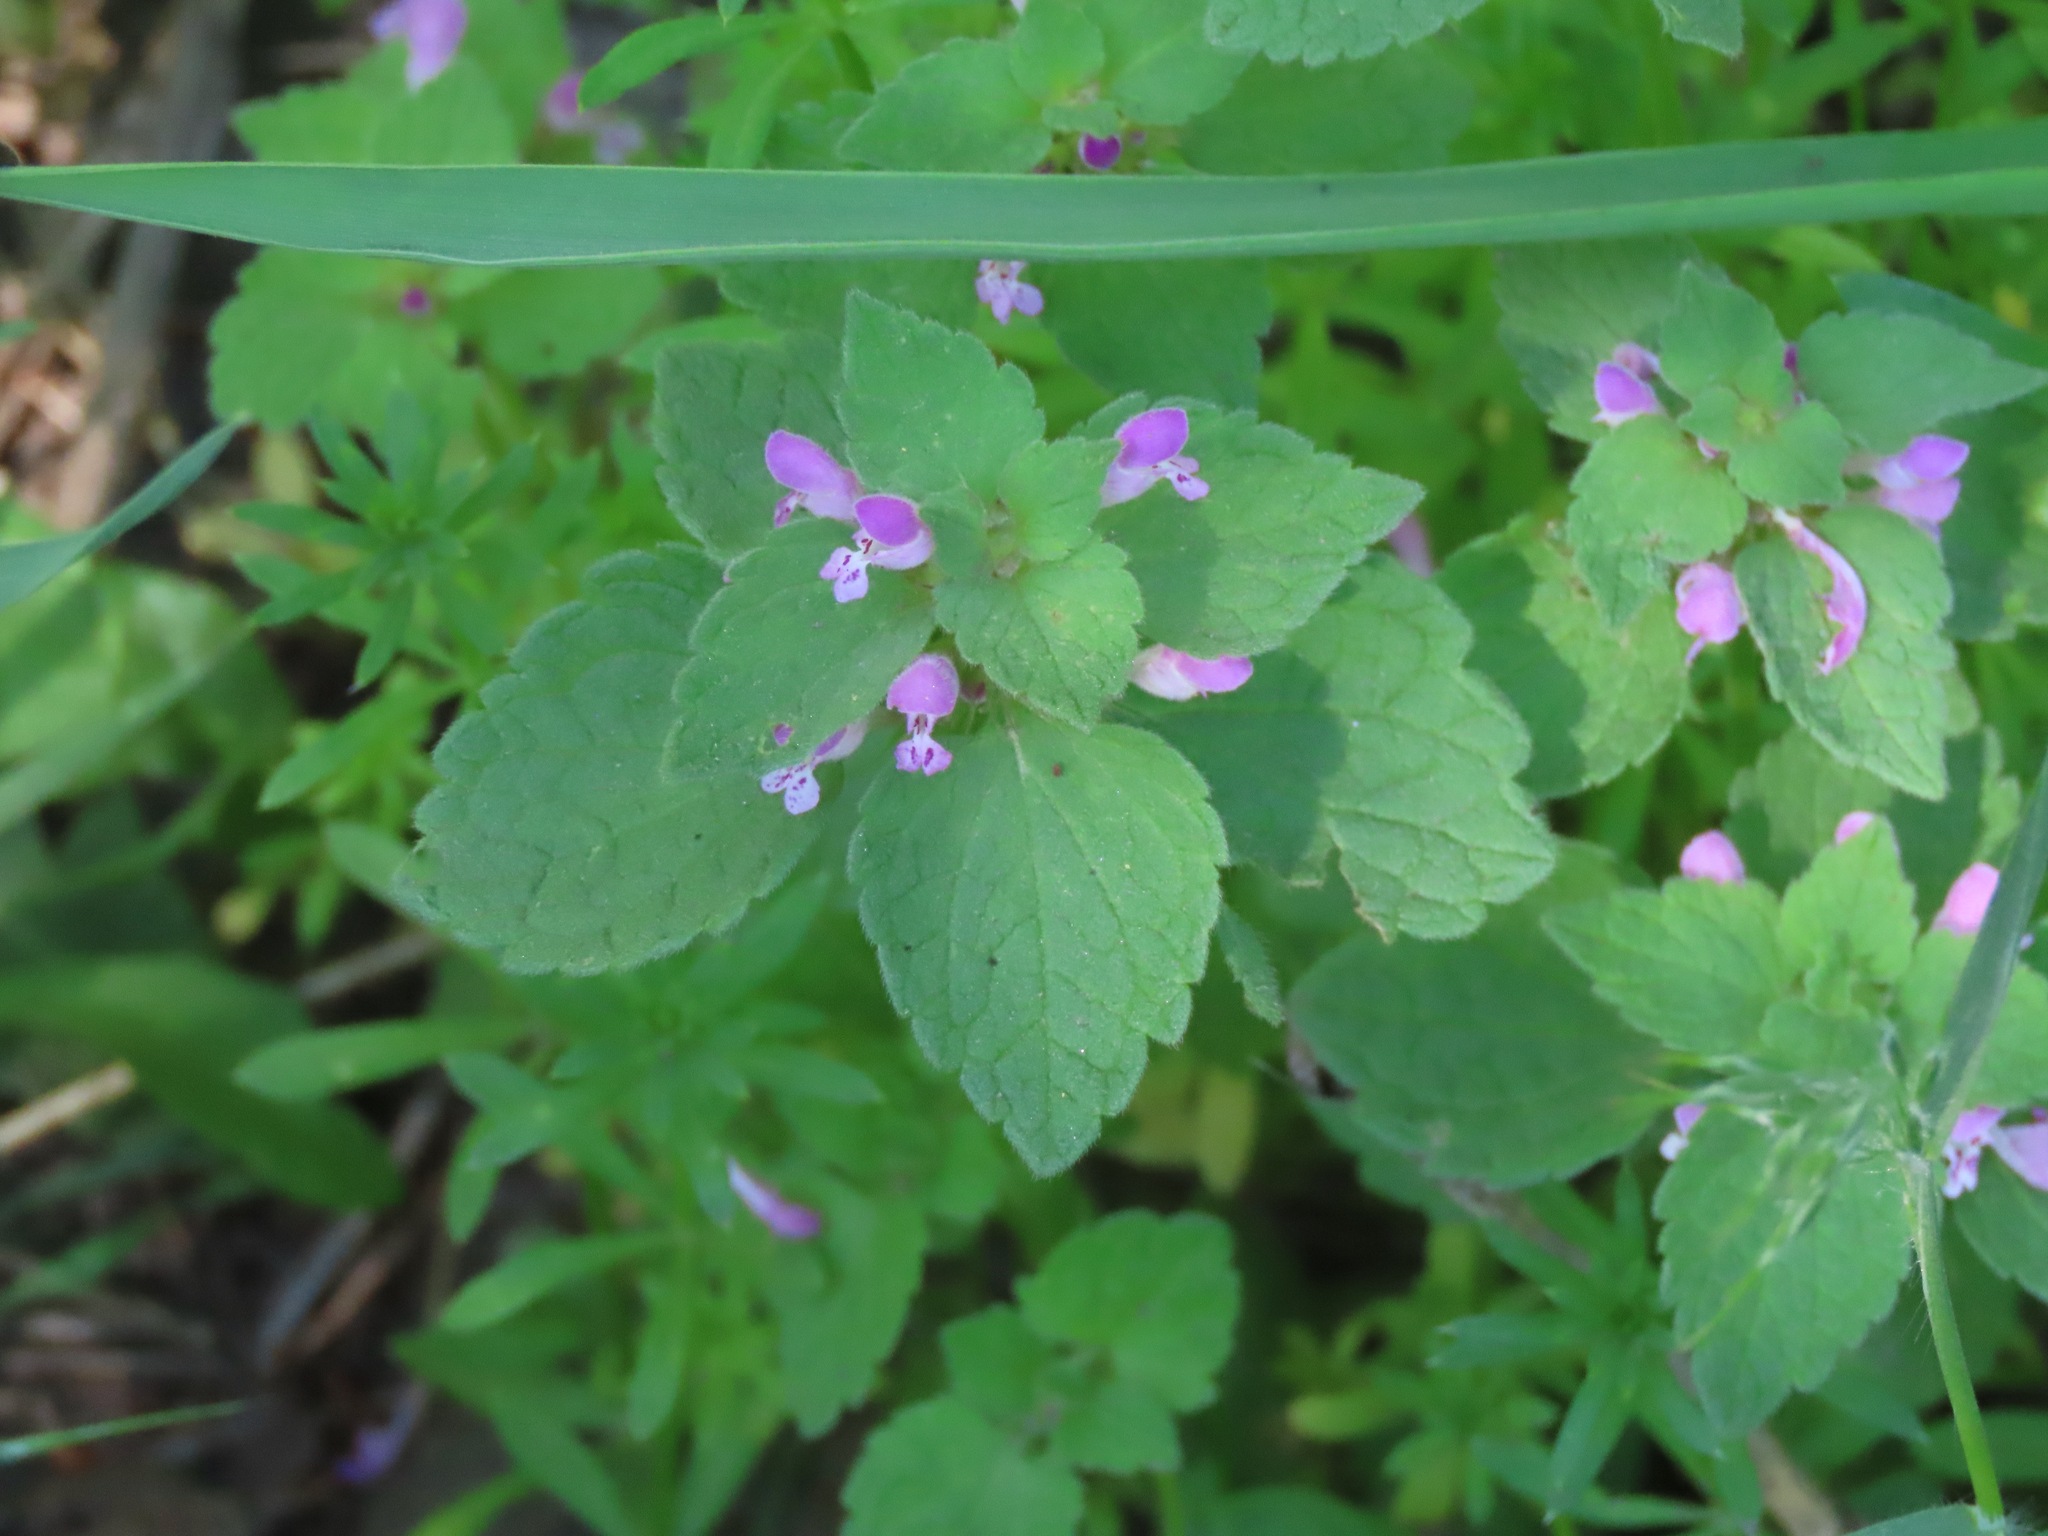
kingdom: Plantae
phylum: Tracheophyta
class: Magnoliopsida
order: Lamiales
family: Lamiaceae
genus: Lamium
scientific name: Lamium purpureum
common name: Red dead-nettle
